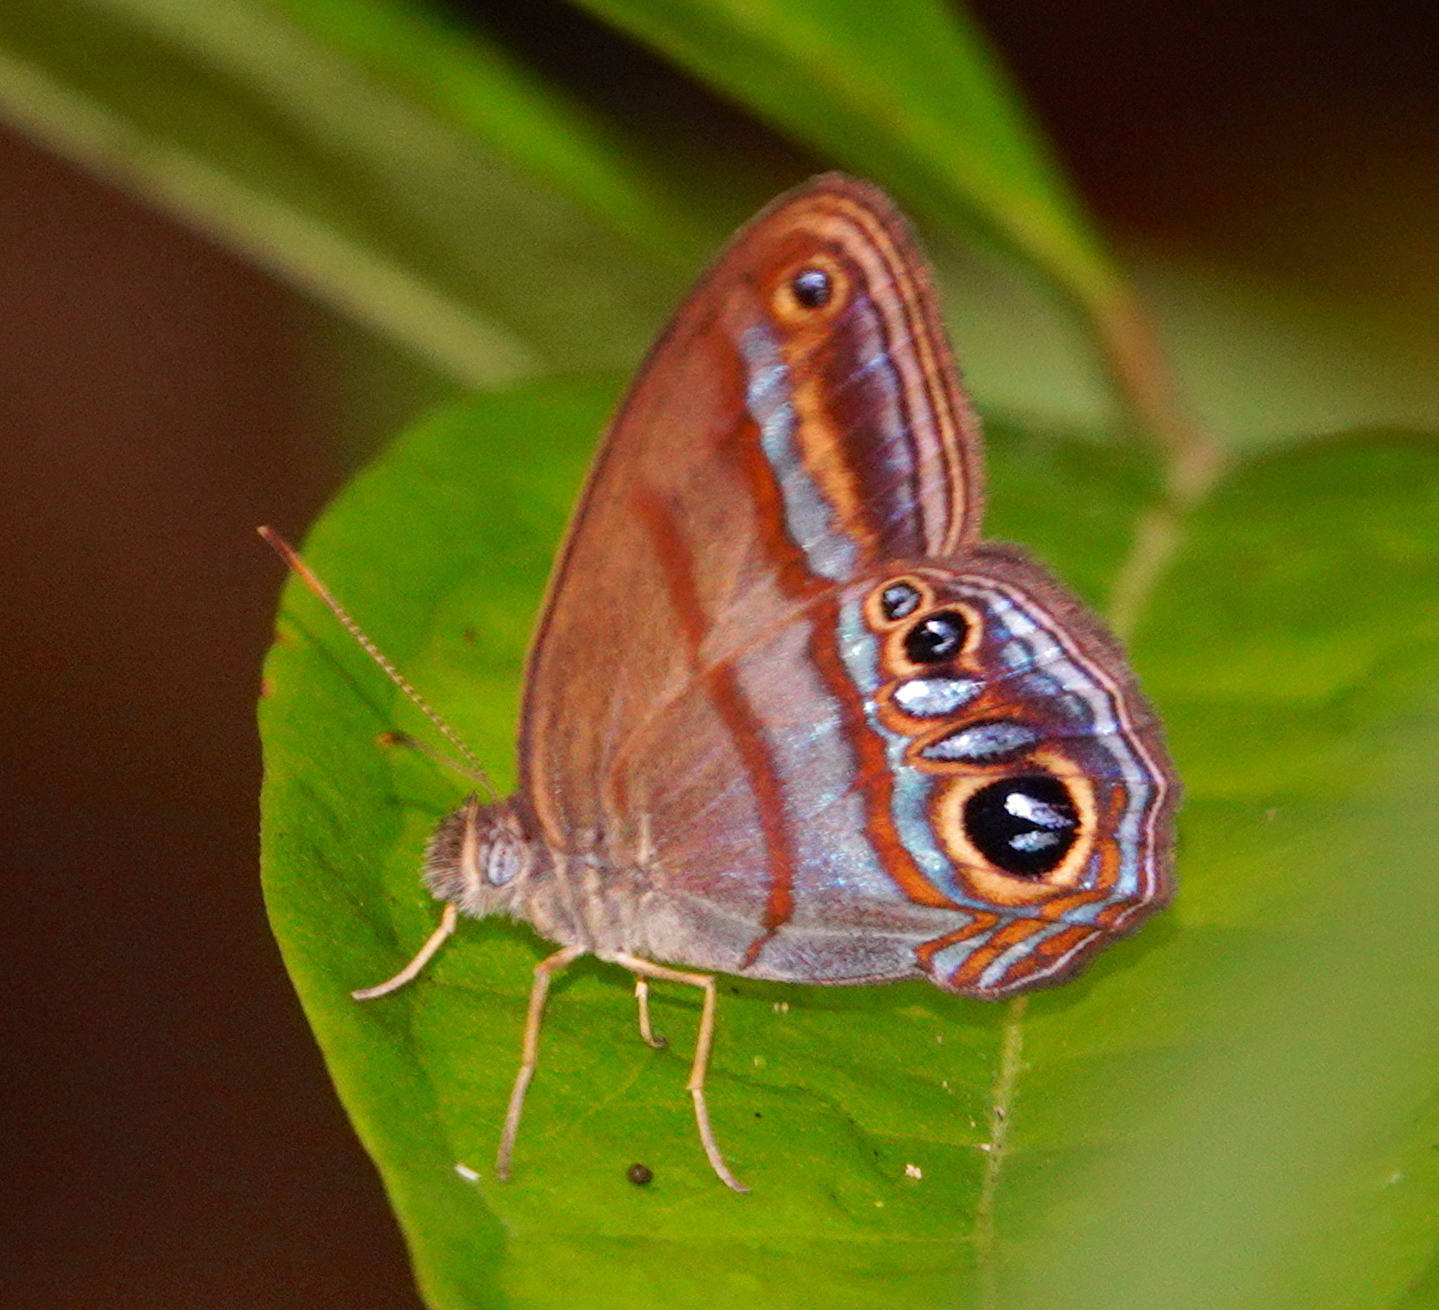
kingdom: Animalia
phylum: Arthropoda
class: Insecta
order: Lepidoptera
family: Nymphalidae
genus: Lazulina
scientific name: Lazulina
